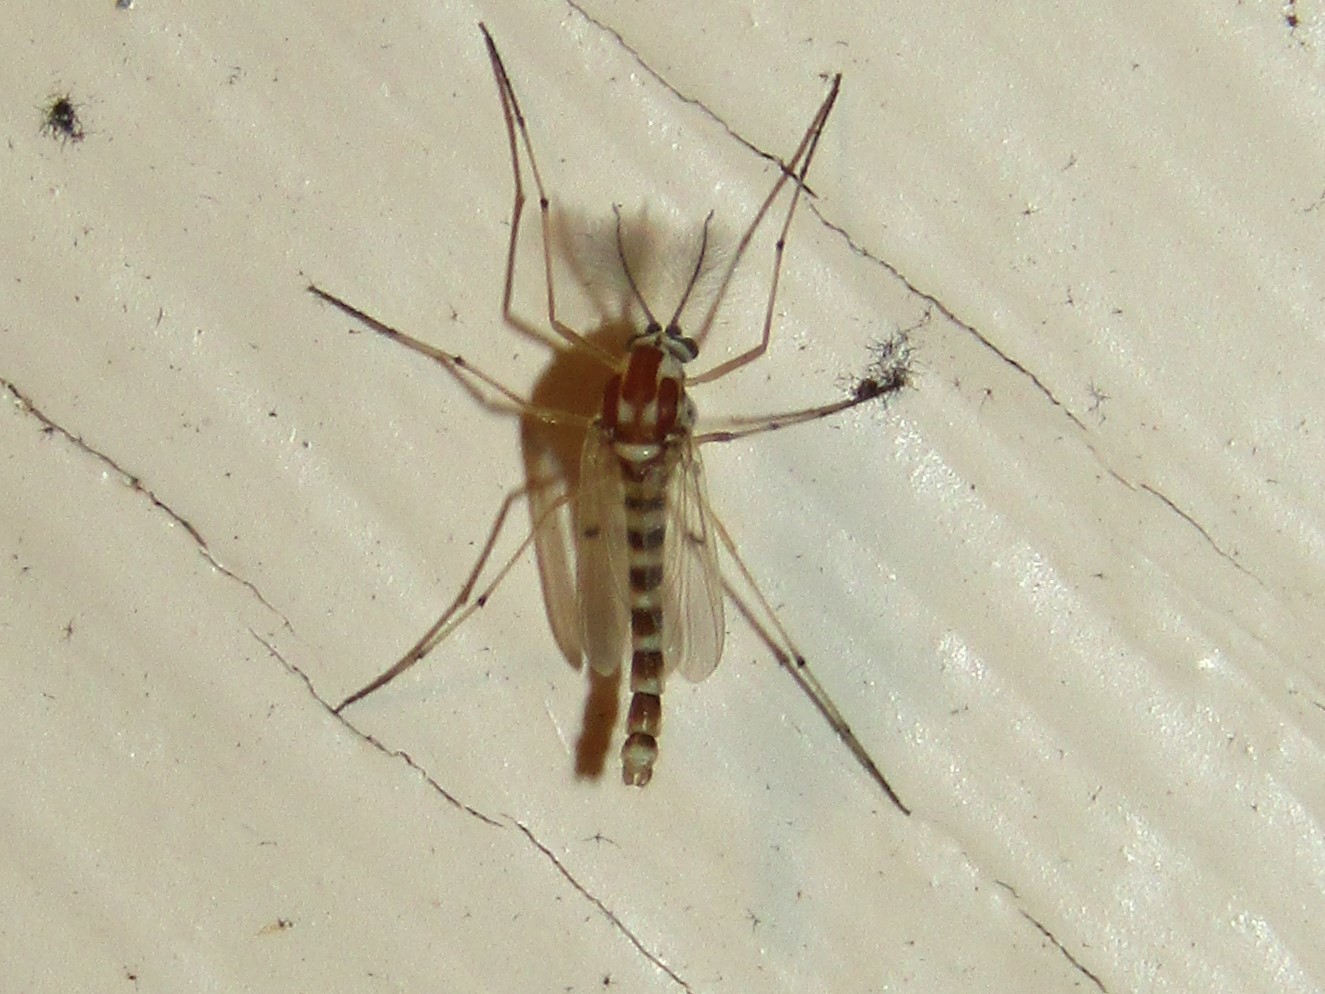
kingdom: Animalia
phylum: Arthropoda
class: Insecta
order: Diptera
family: Chironomidae
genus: Procladius
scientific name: Procladius bellus
